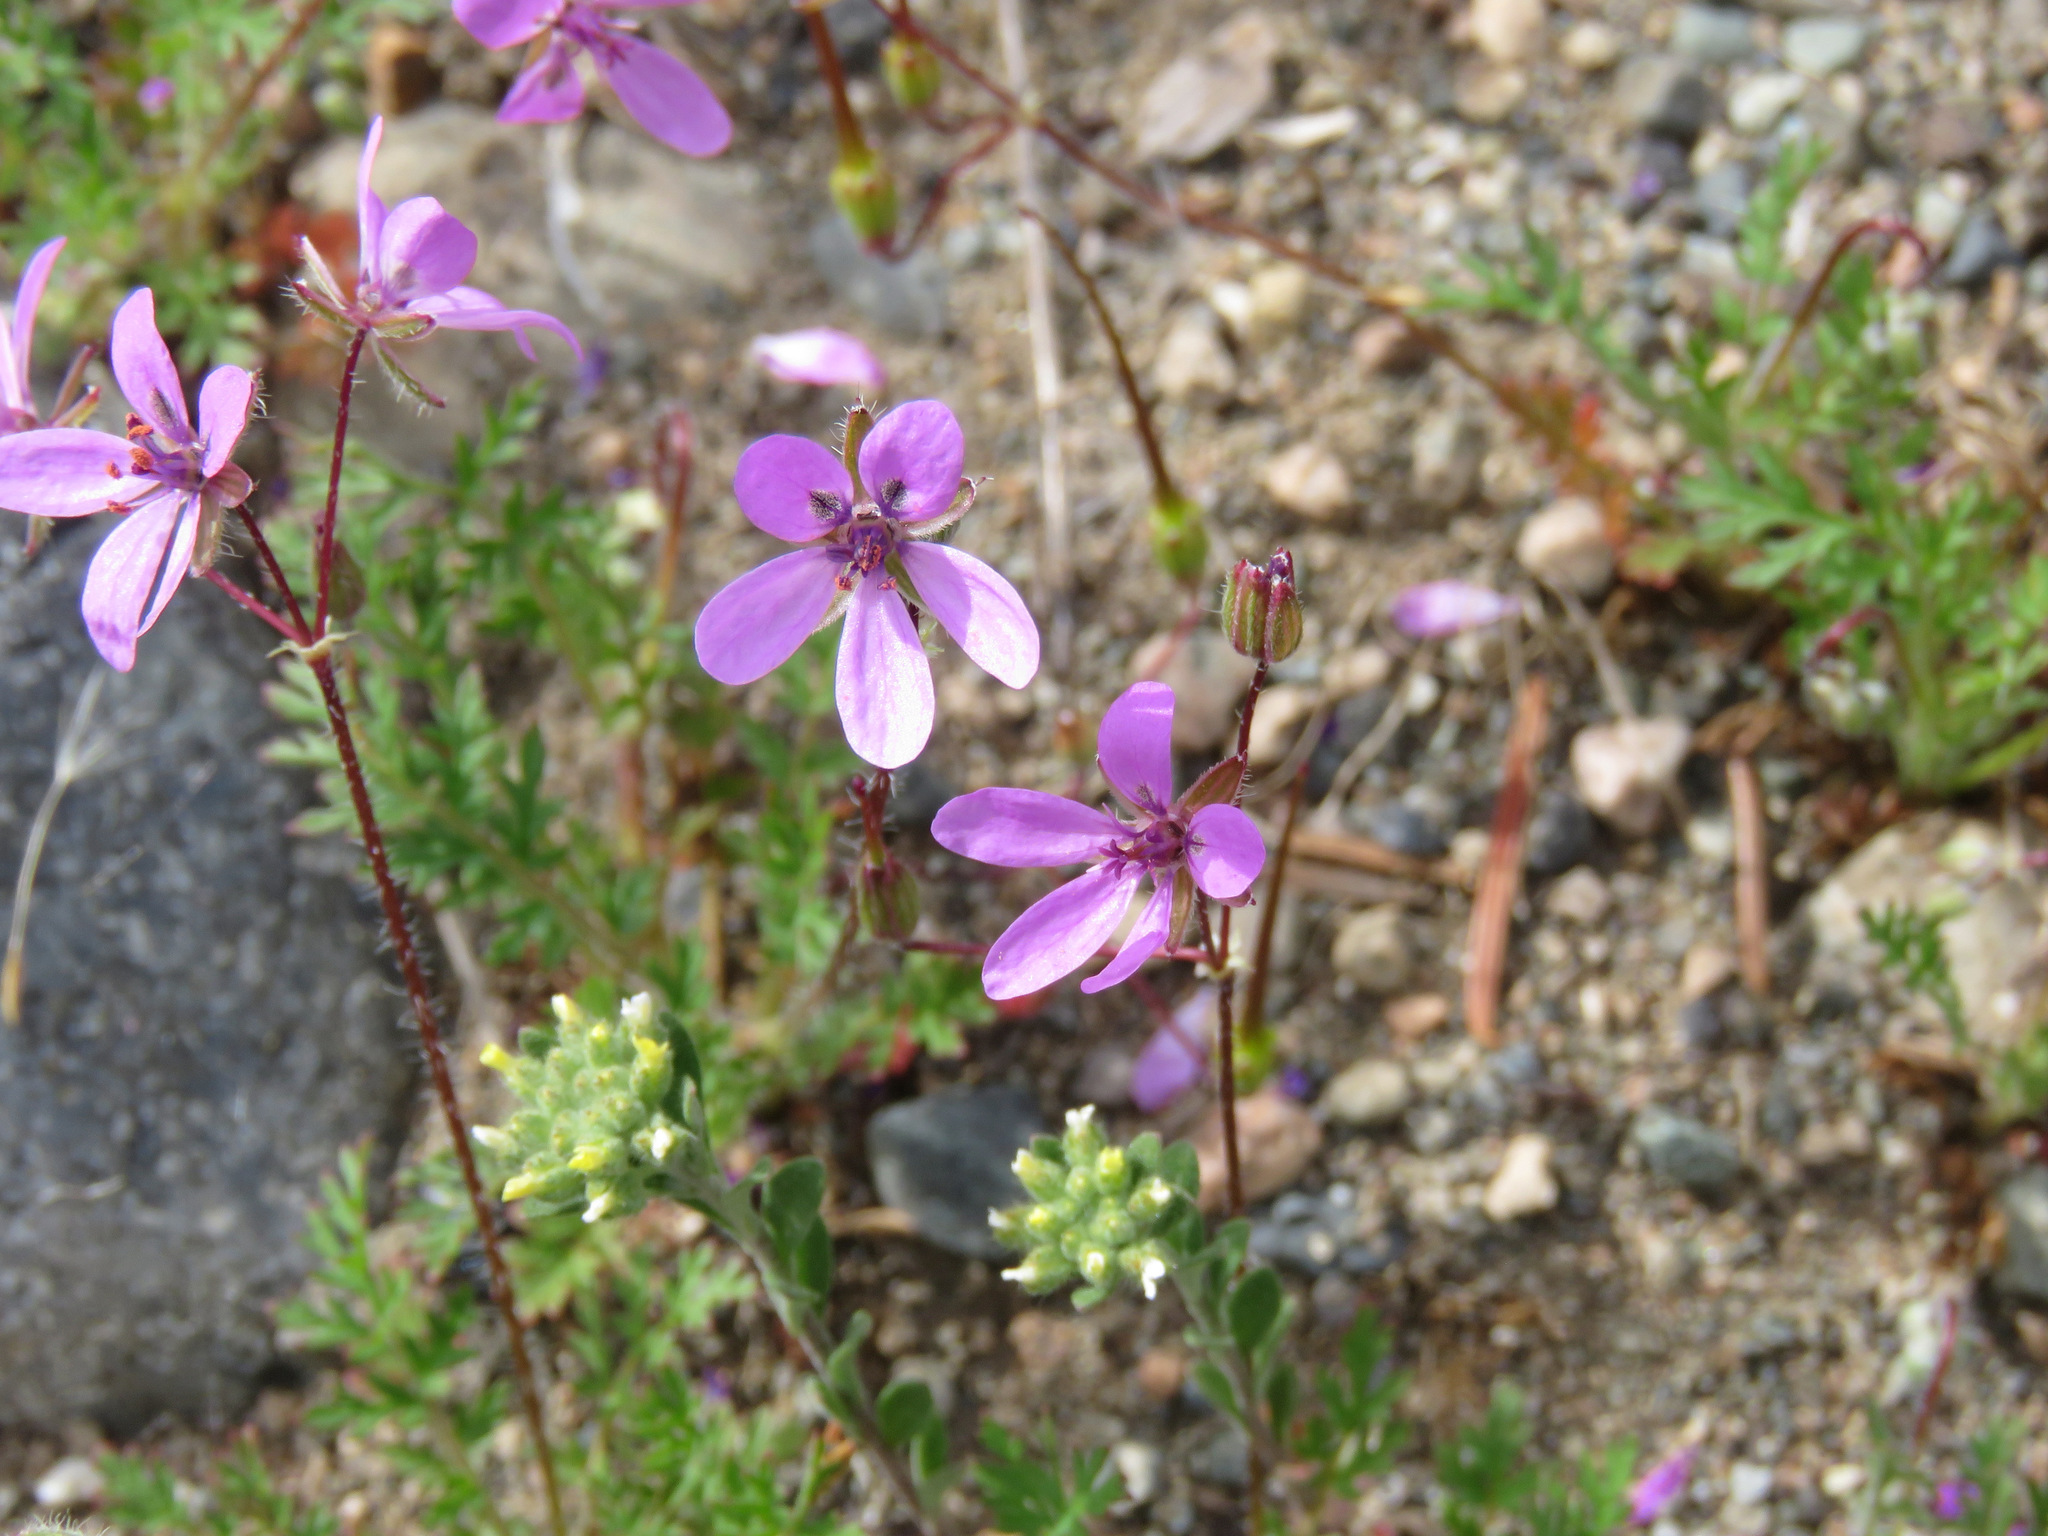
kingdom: Plantae
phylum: Tracheophyta
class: Magnoliopsida
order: Geraniales
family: Geraniaceae
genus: Erodium
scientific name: Erodium cicutarium
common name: Common stork's-bill
